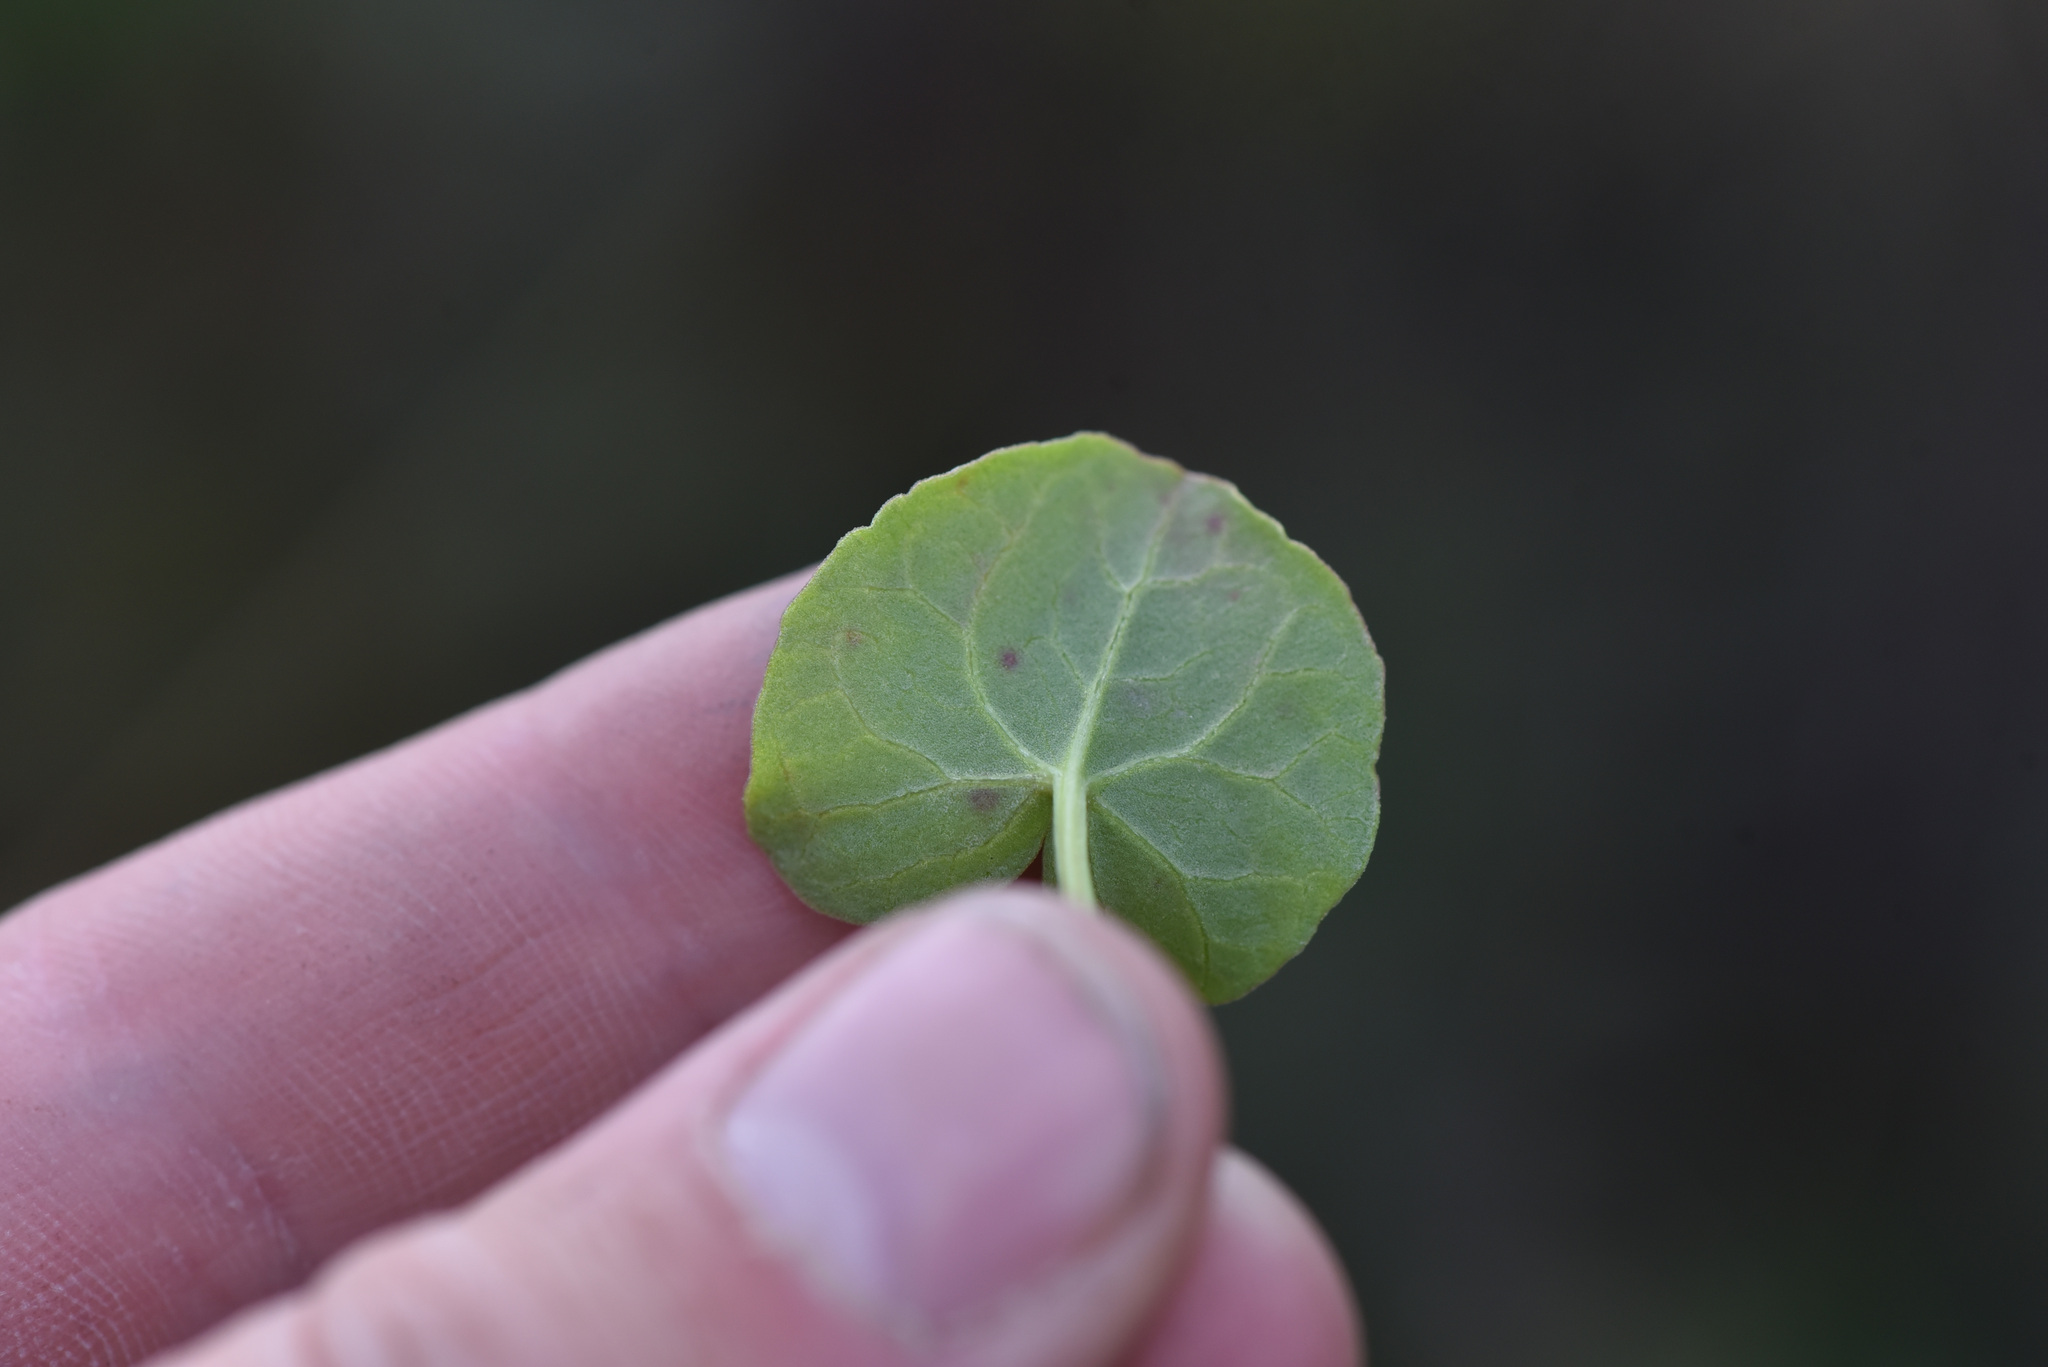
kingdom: Plantae
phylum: Tracheophyta
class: Magnoliopsida
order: Caryophyllales
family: Polygonaceae
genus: Oxyria
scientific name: Oxyria digyna
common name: Alpine mountain-sorrel
